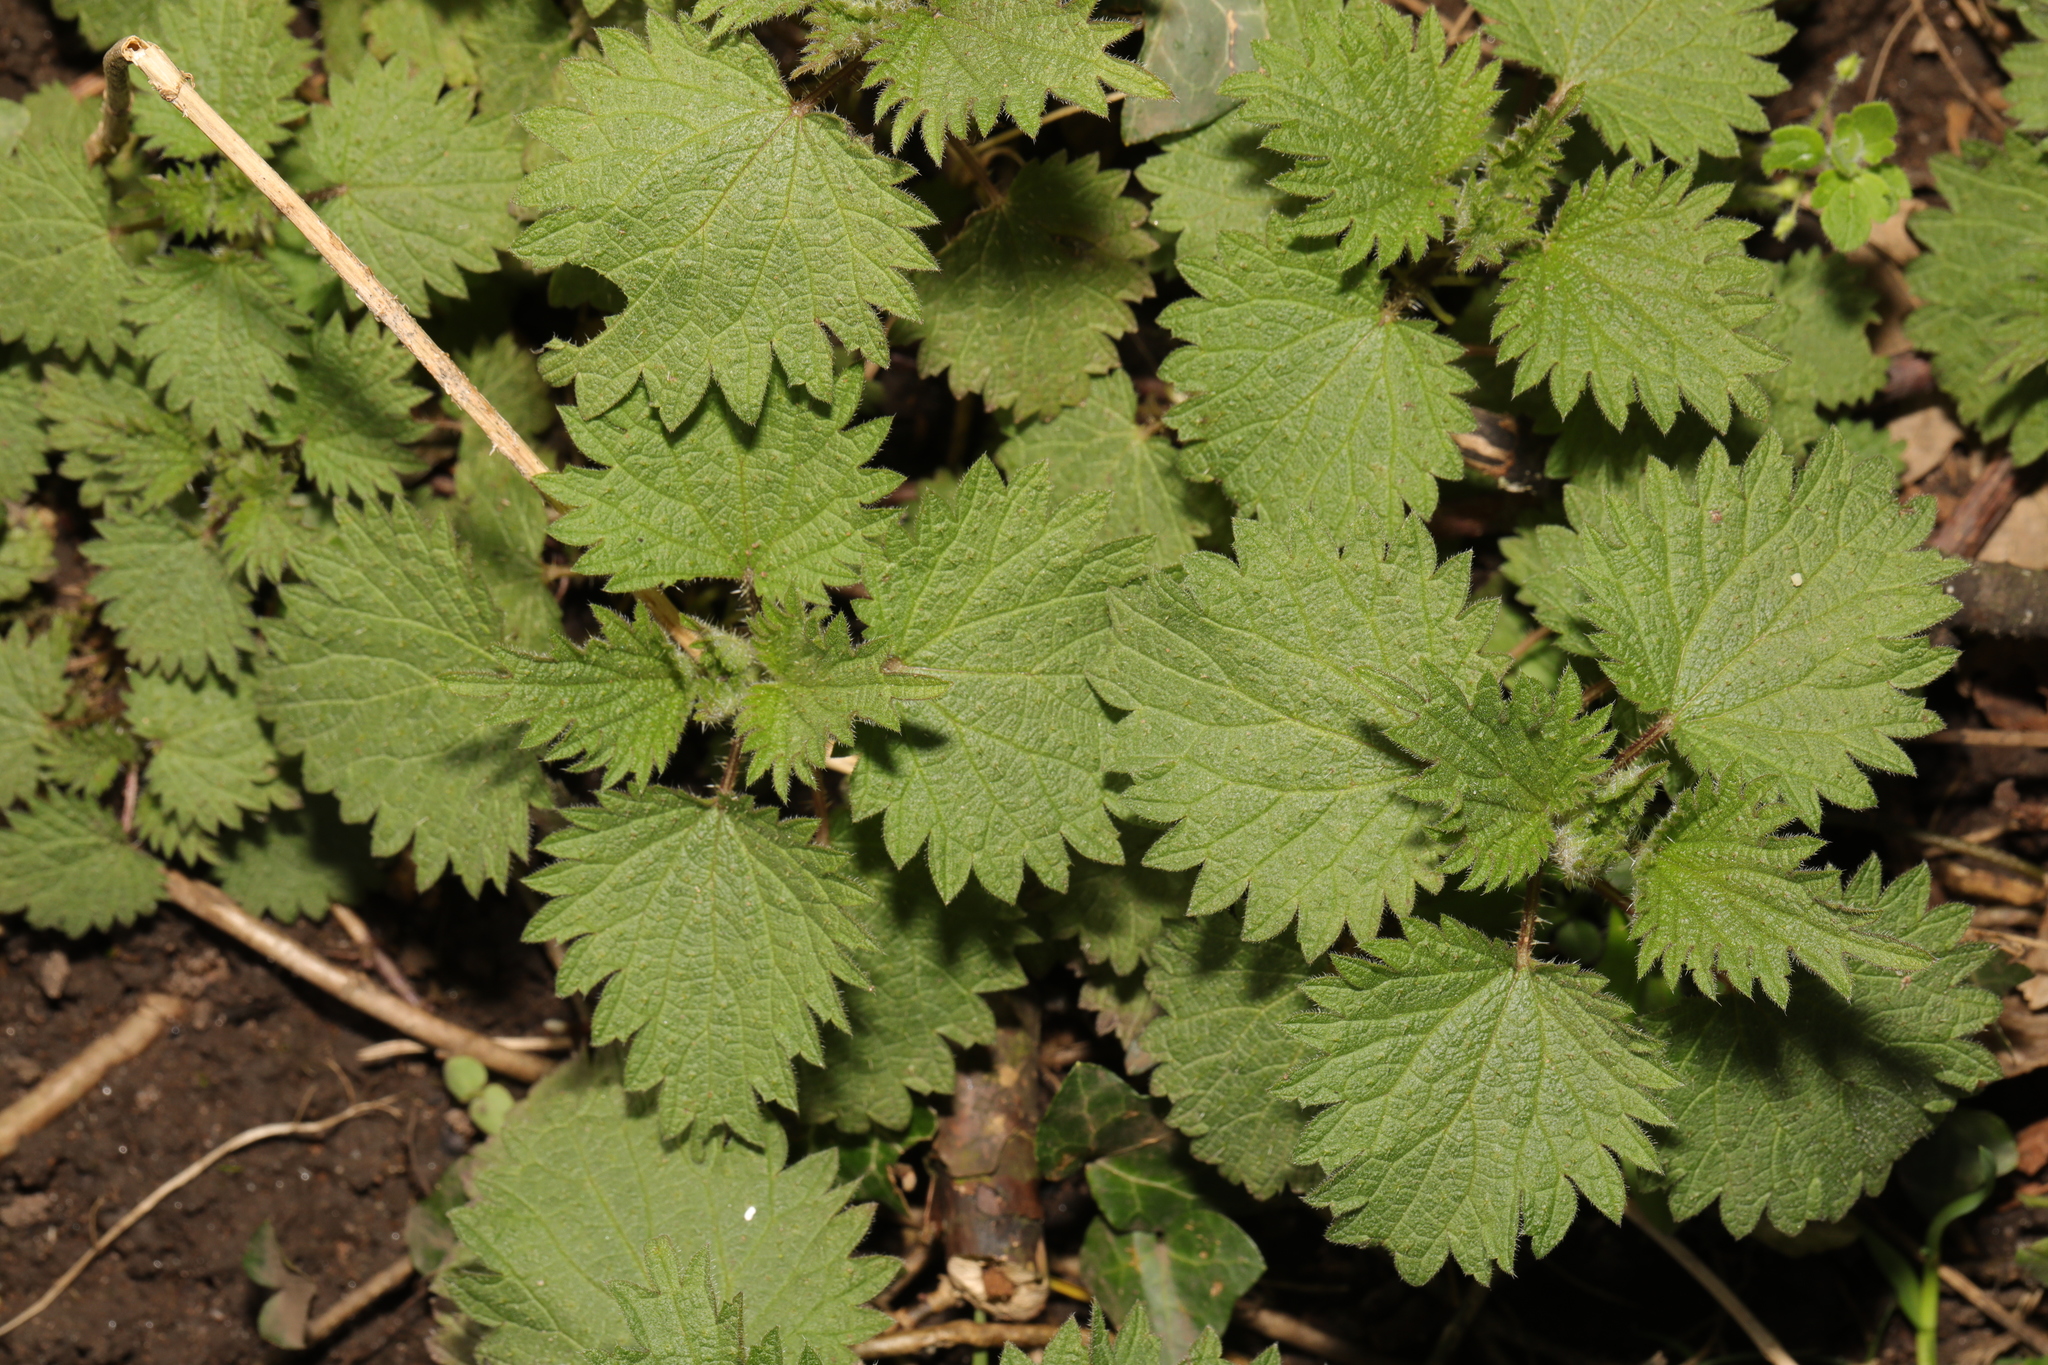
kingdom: Plantae
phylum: Tracheophyta
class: Magnoliopsida
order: Rosales
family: Urticaceae
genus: Urtica
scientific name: Urtica dioica
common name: Common nettle
